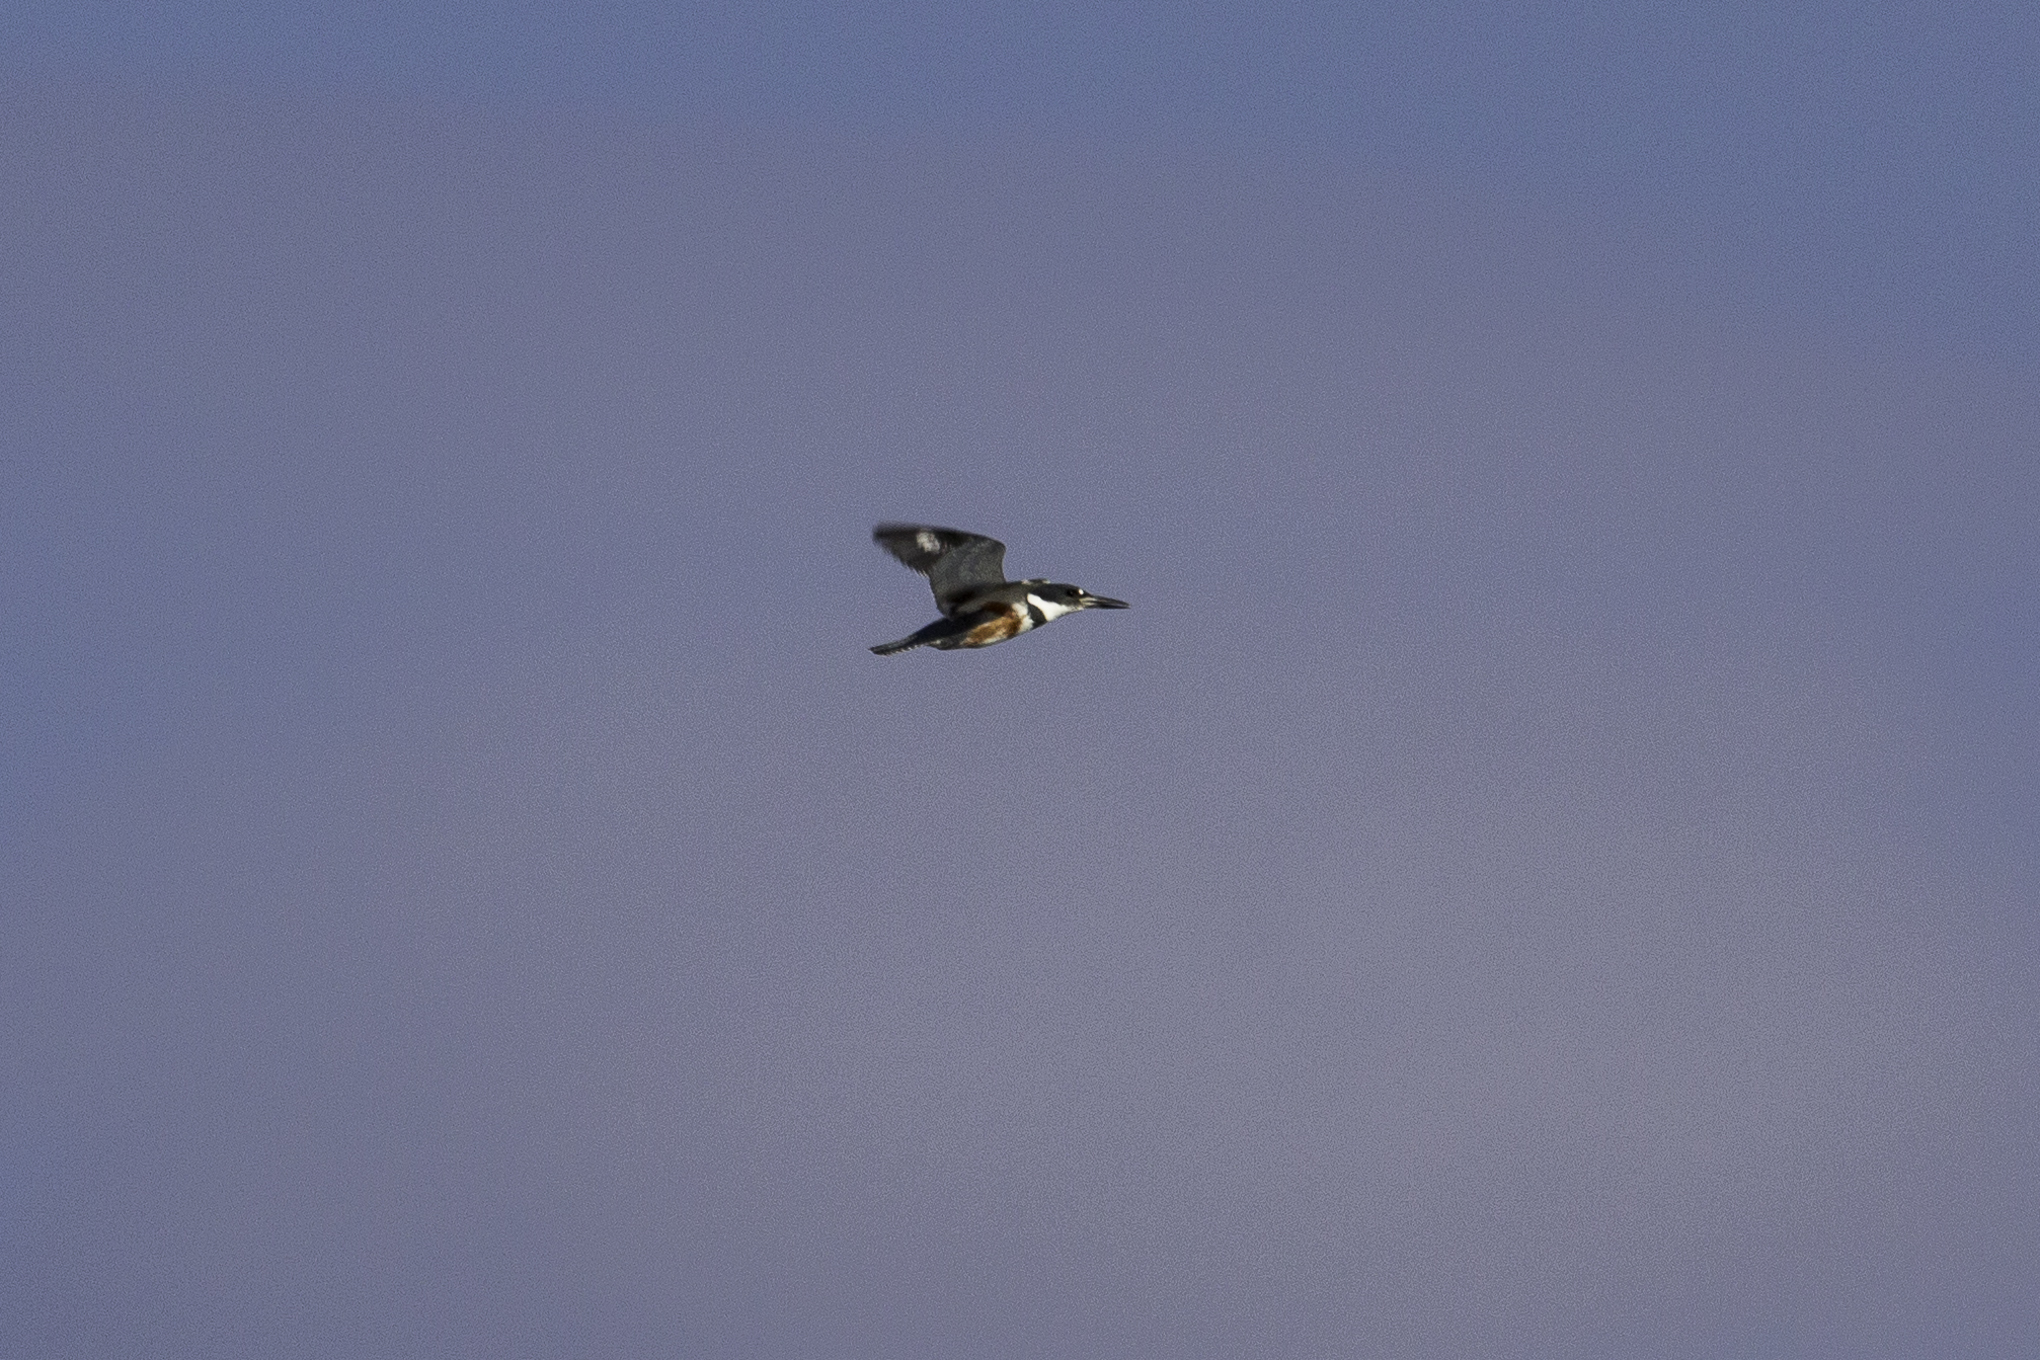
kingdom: Animalia
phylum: Chordata
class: Aves
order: Coraciiformes
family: Alcedinidae
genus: Megaceryle
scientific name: Megaceryle alcyon
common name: Belted kingfisher
